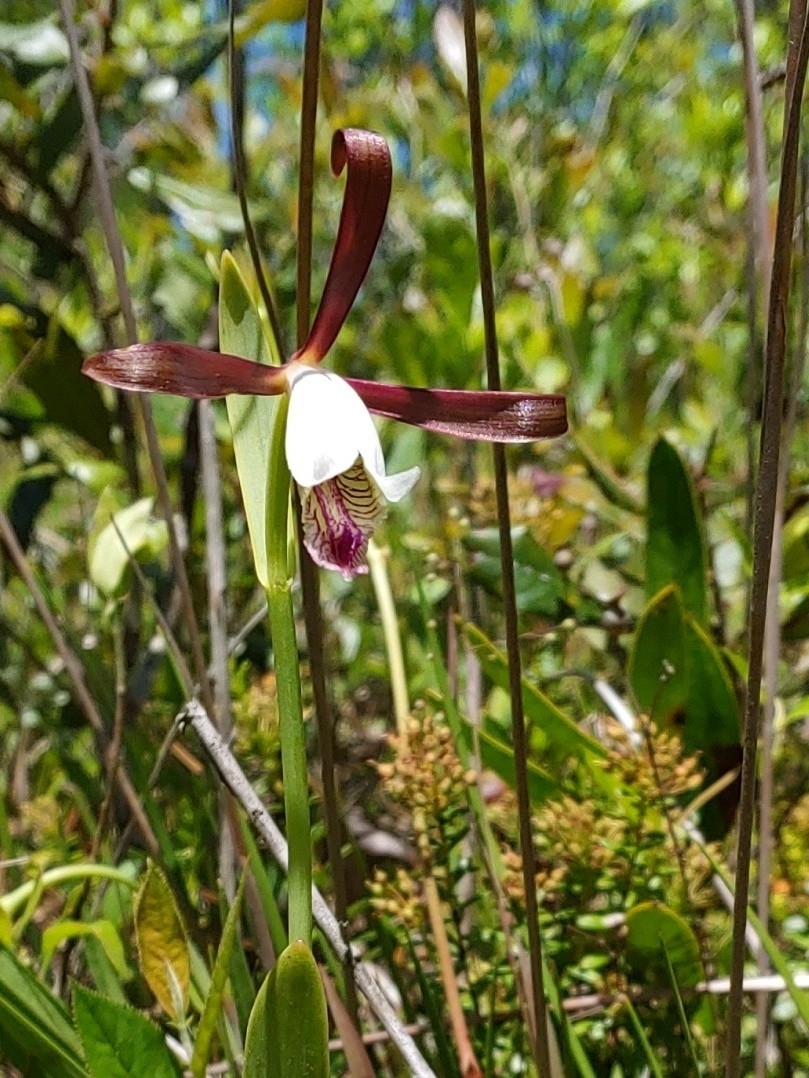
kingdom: Plantae
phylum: Tracheophyta
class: Liliopsida
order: Asparagales
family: Orchidaceae
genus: Cleistesiopsis
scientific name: Cleistesiopsis oricamporum
